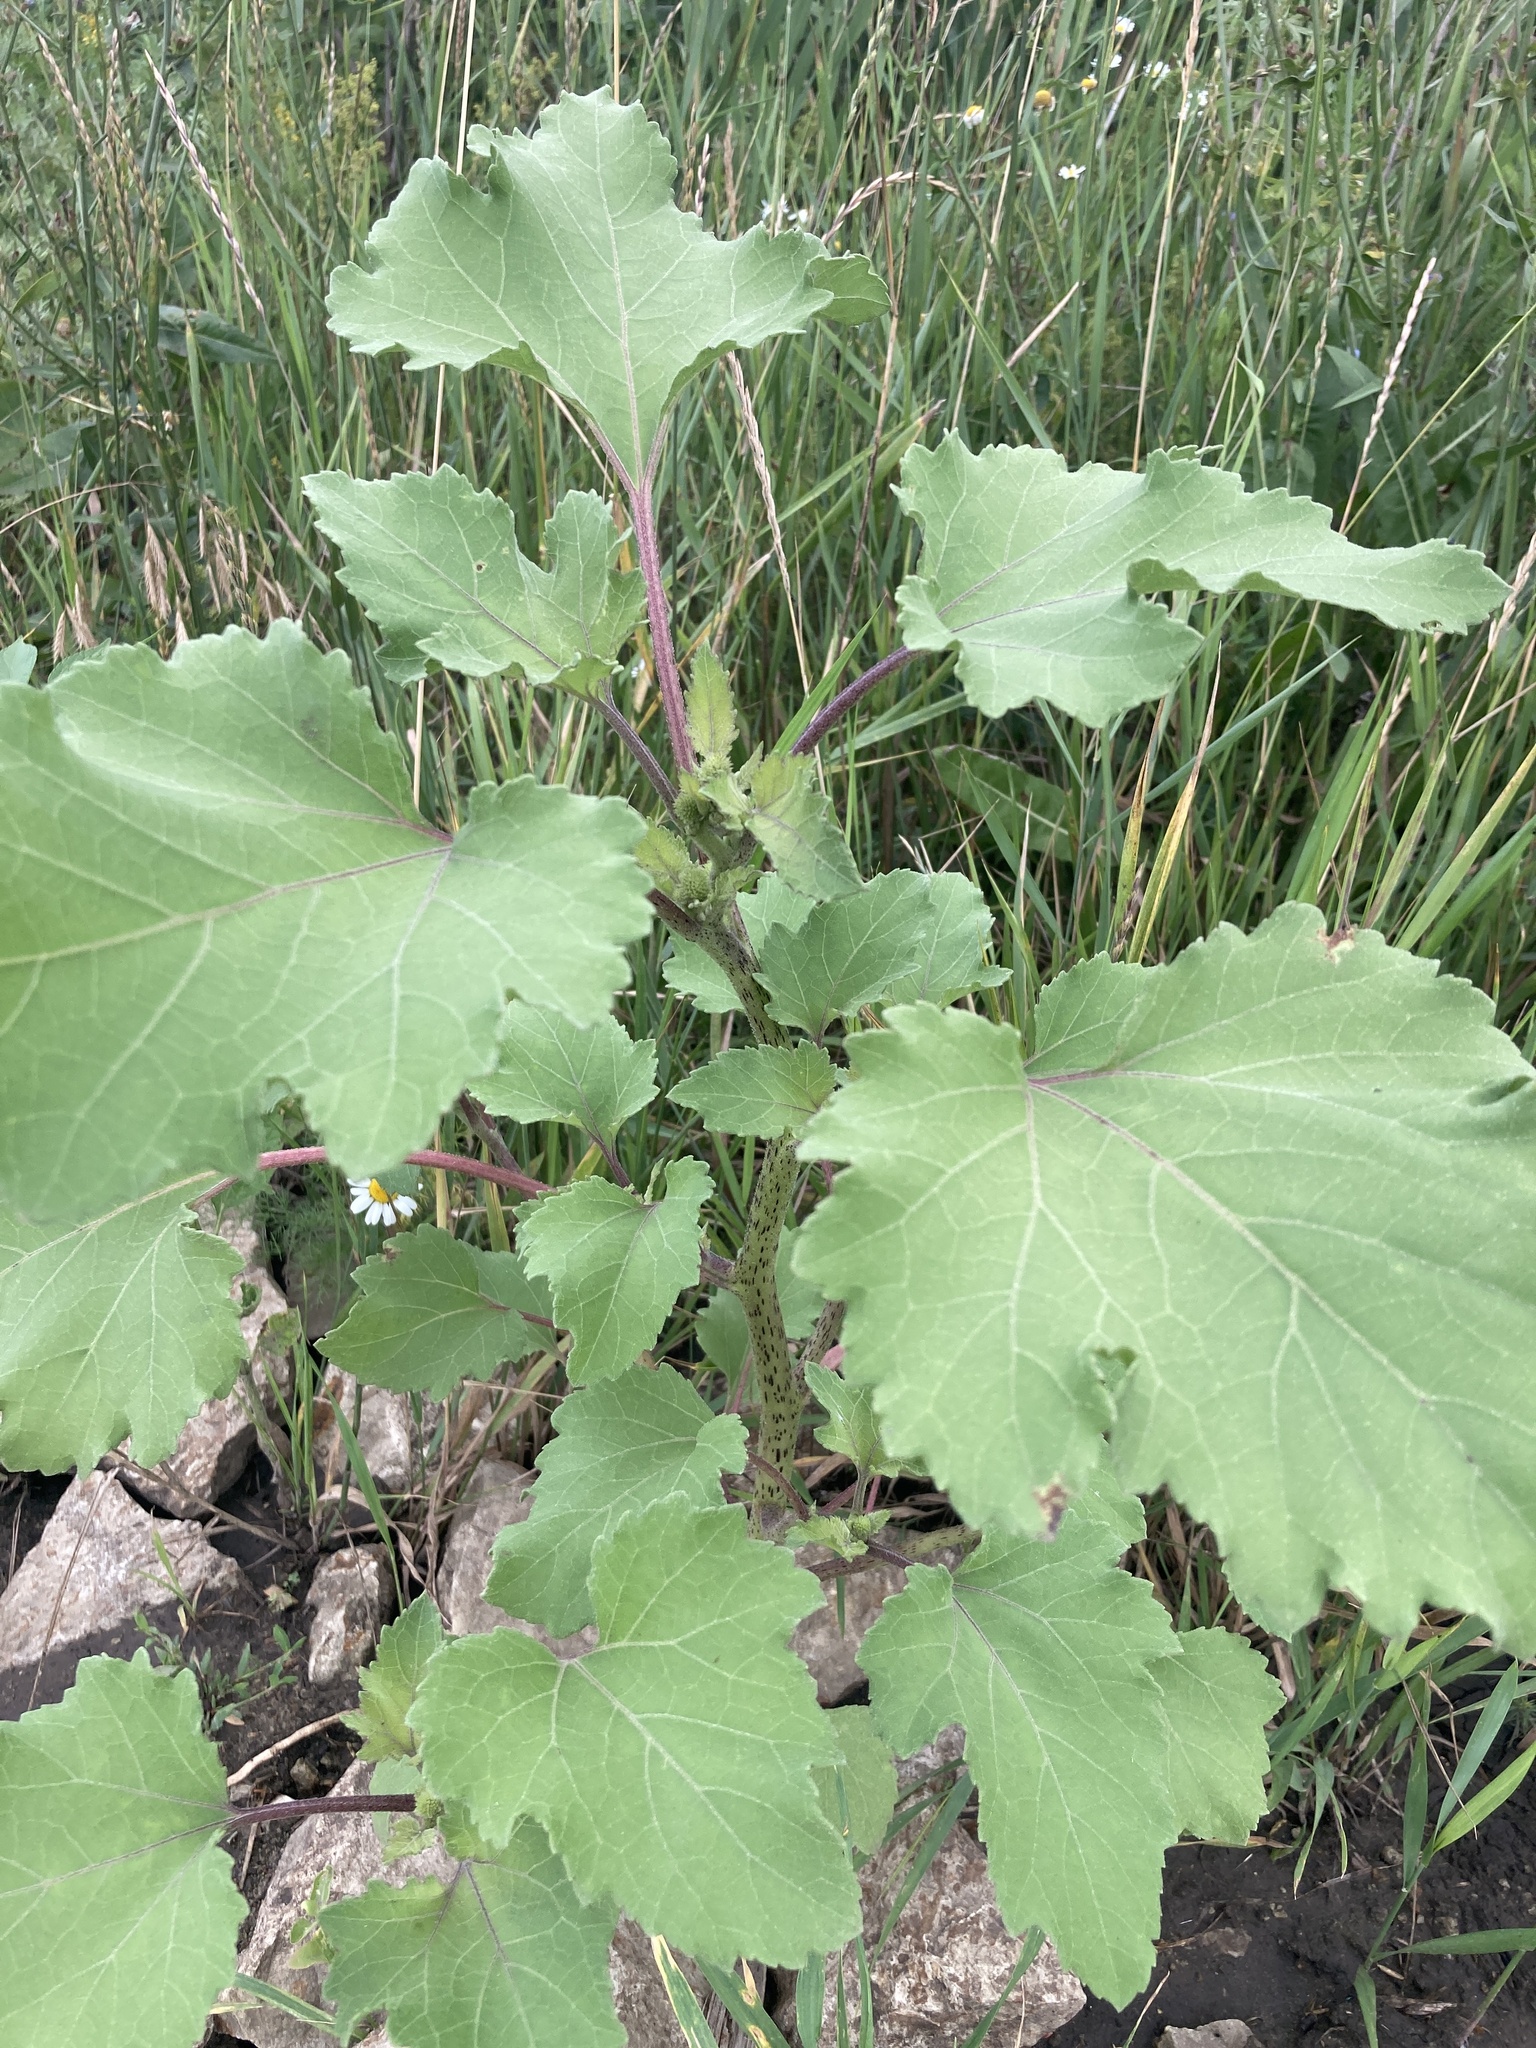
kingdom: Plantae
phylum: Tracheophyta
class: Magnoliopsida
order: Asterales
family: Asteraceae
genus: Xanthium
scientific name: Xanthium orientale
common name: Californian burr
